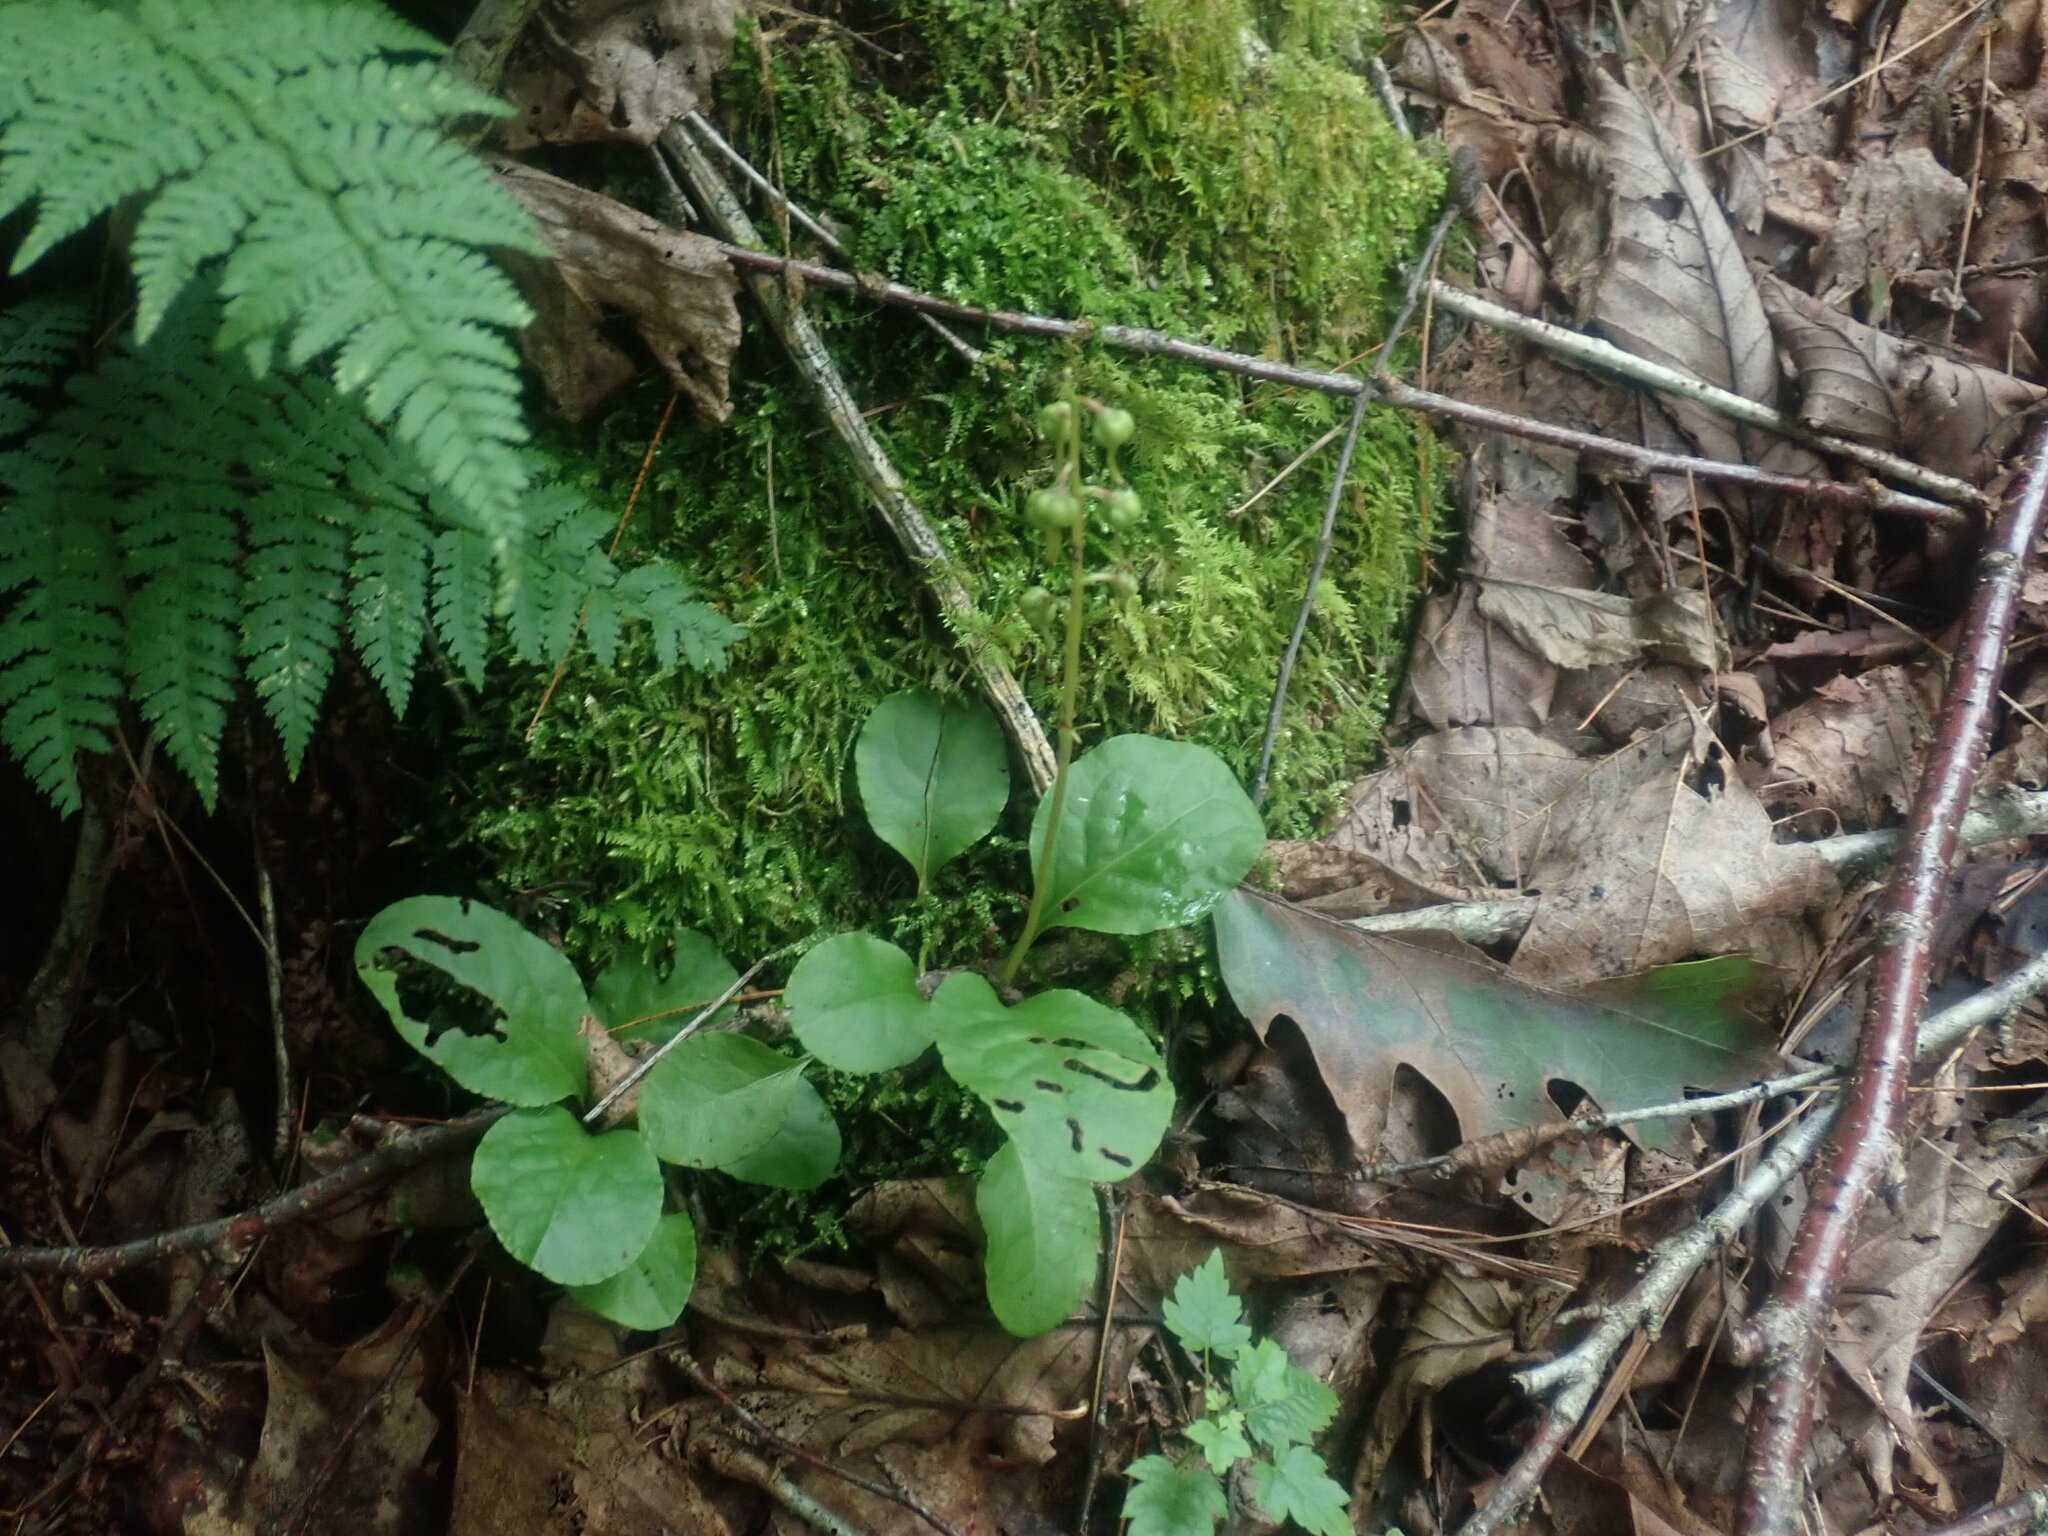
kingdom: Plantae
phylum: Tracheophyta
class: Magnoliopsida
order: Ericales
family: Ericaceae
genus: Pyrola
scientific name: Pyrola elliptica
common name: Shinleaf
